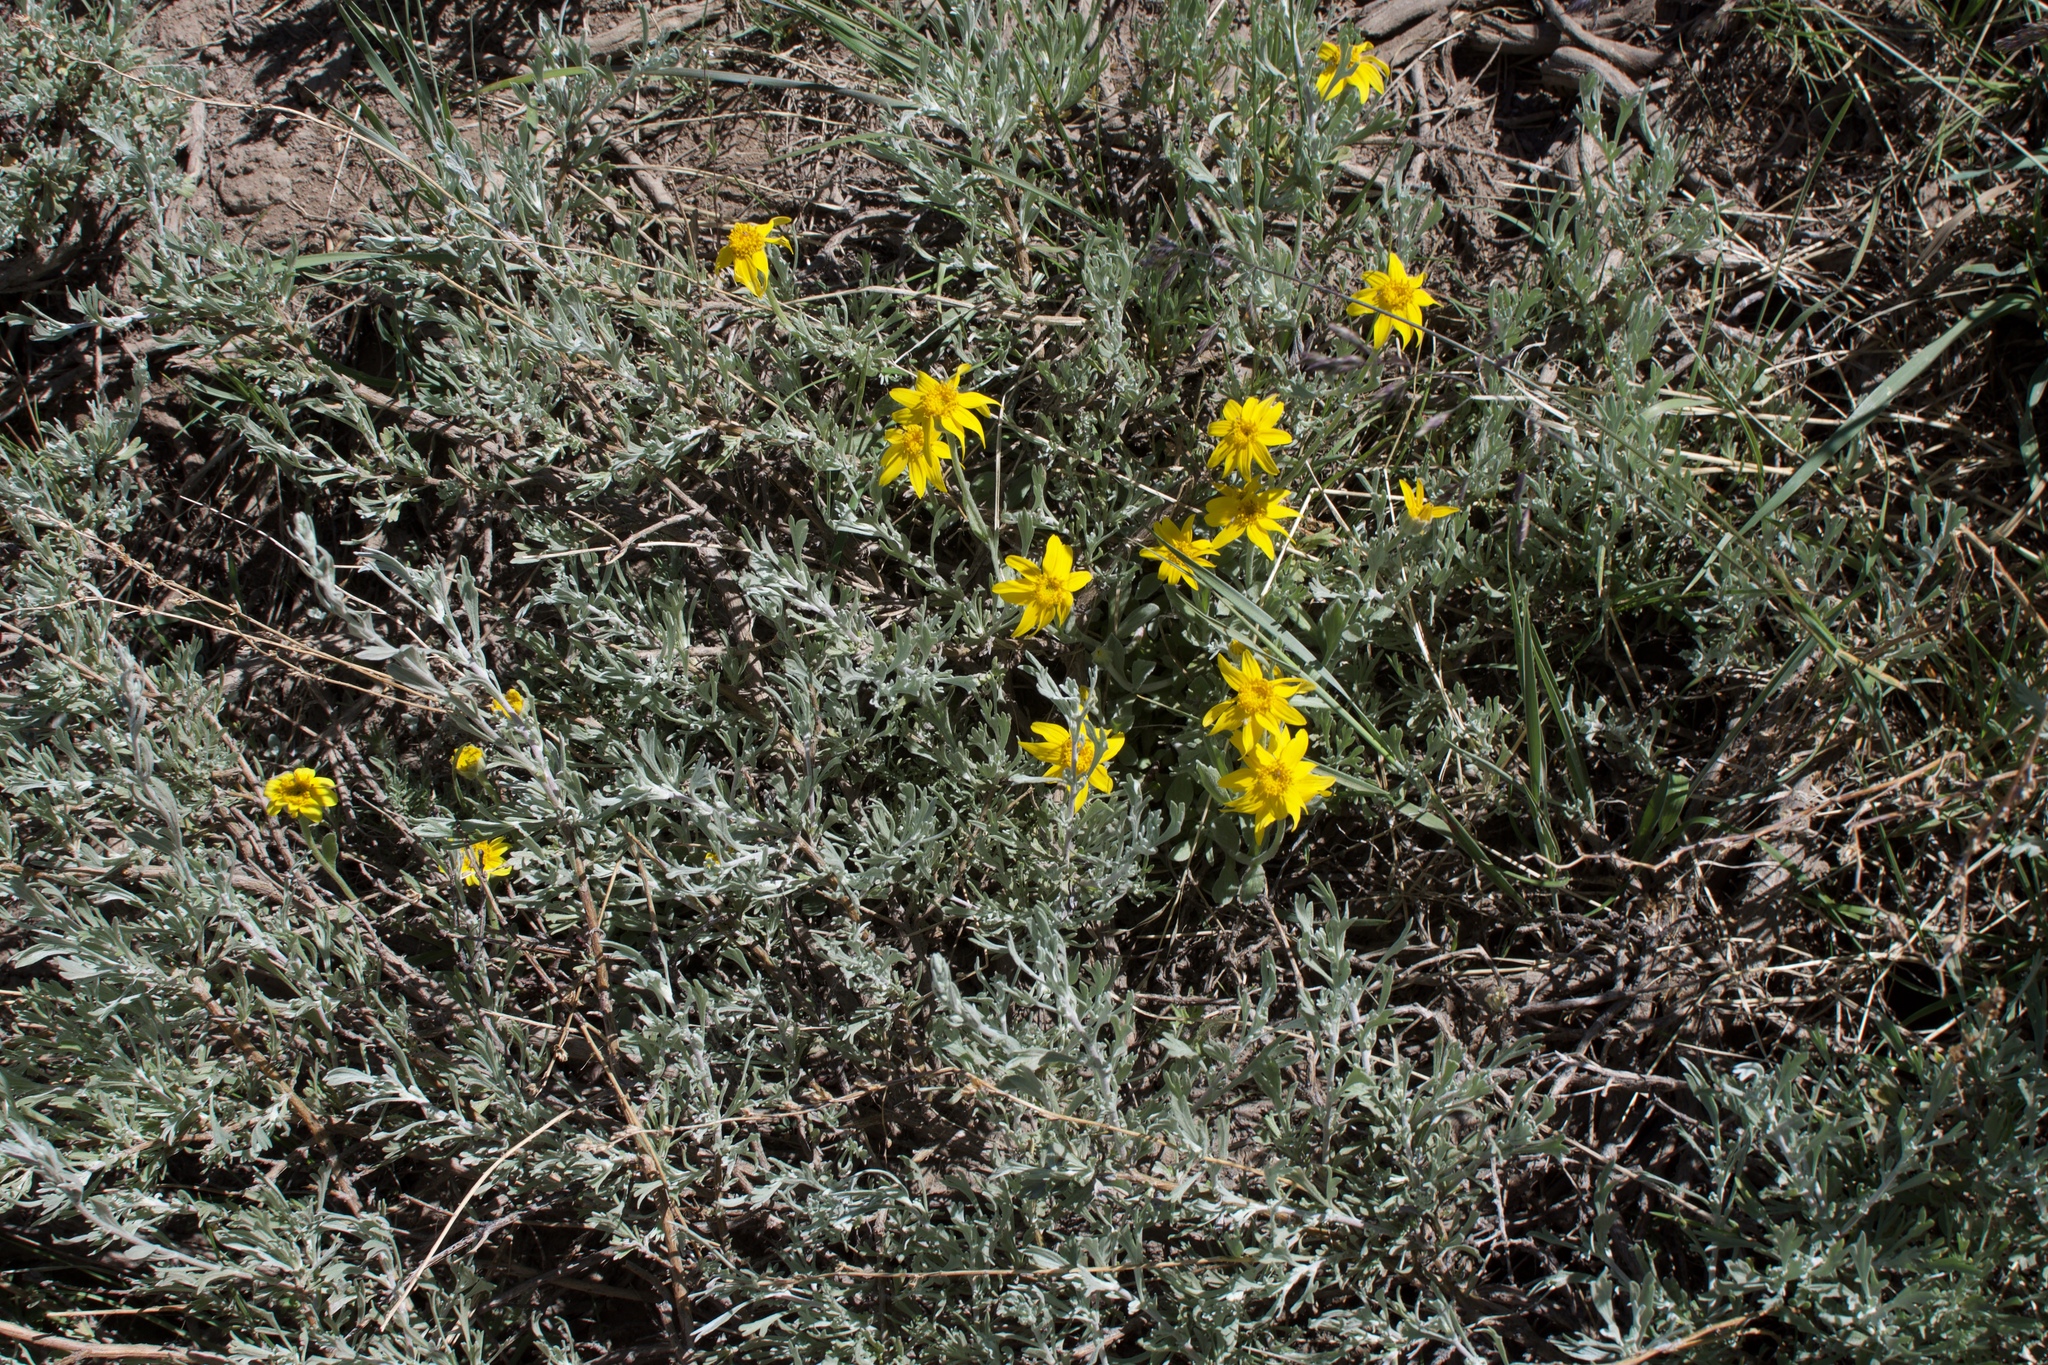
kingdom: Plantae
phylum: Tracheophyta
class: Magnoliopsida
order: Asterales
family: Asteraceae
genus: Eriophyllum
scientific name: Eriophyllum lanatum
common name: Common woolly-sunflower
